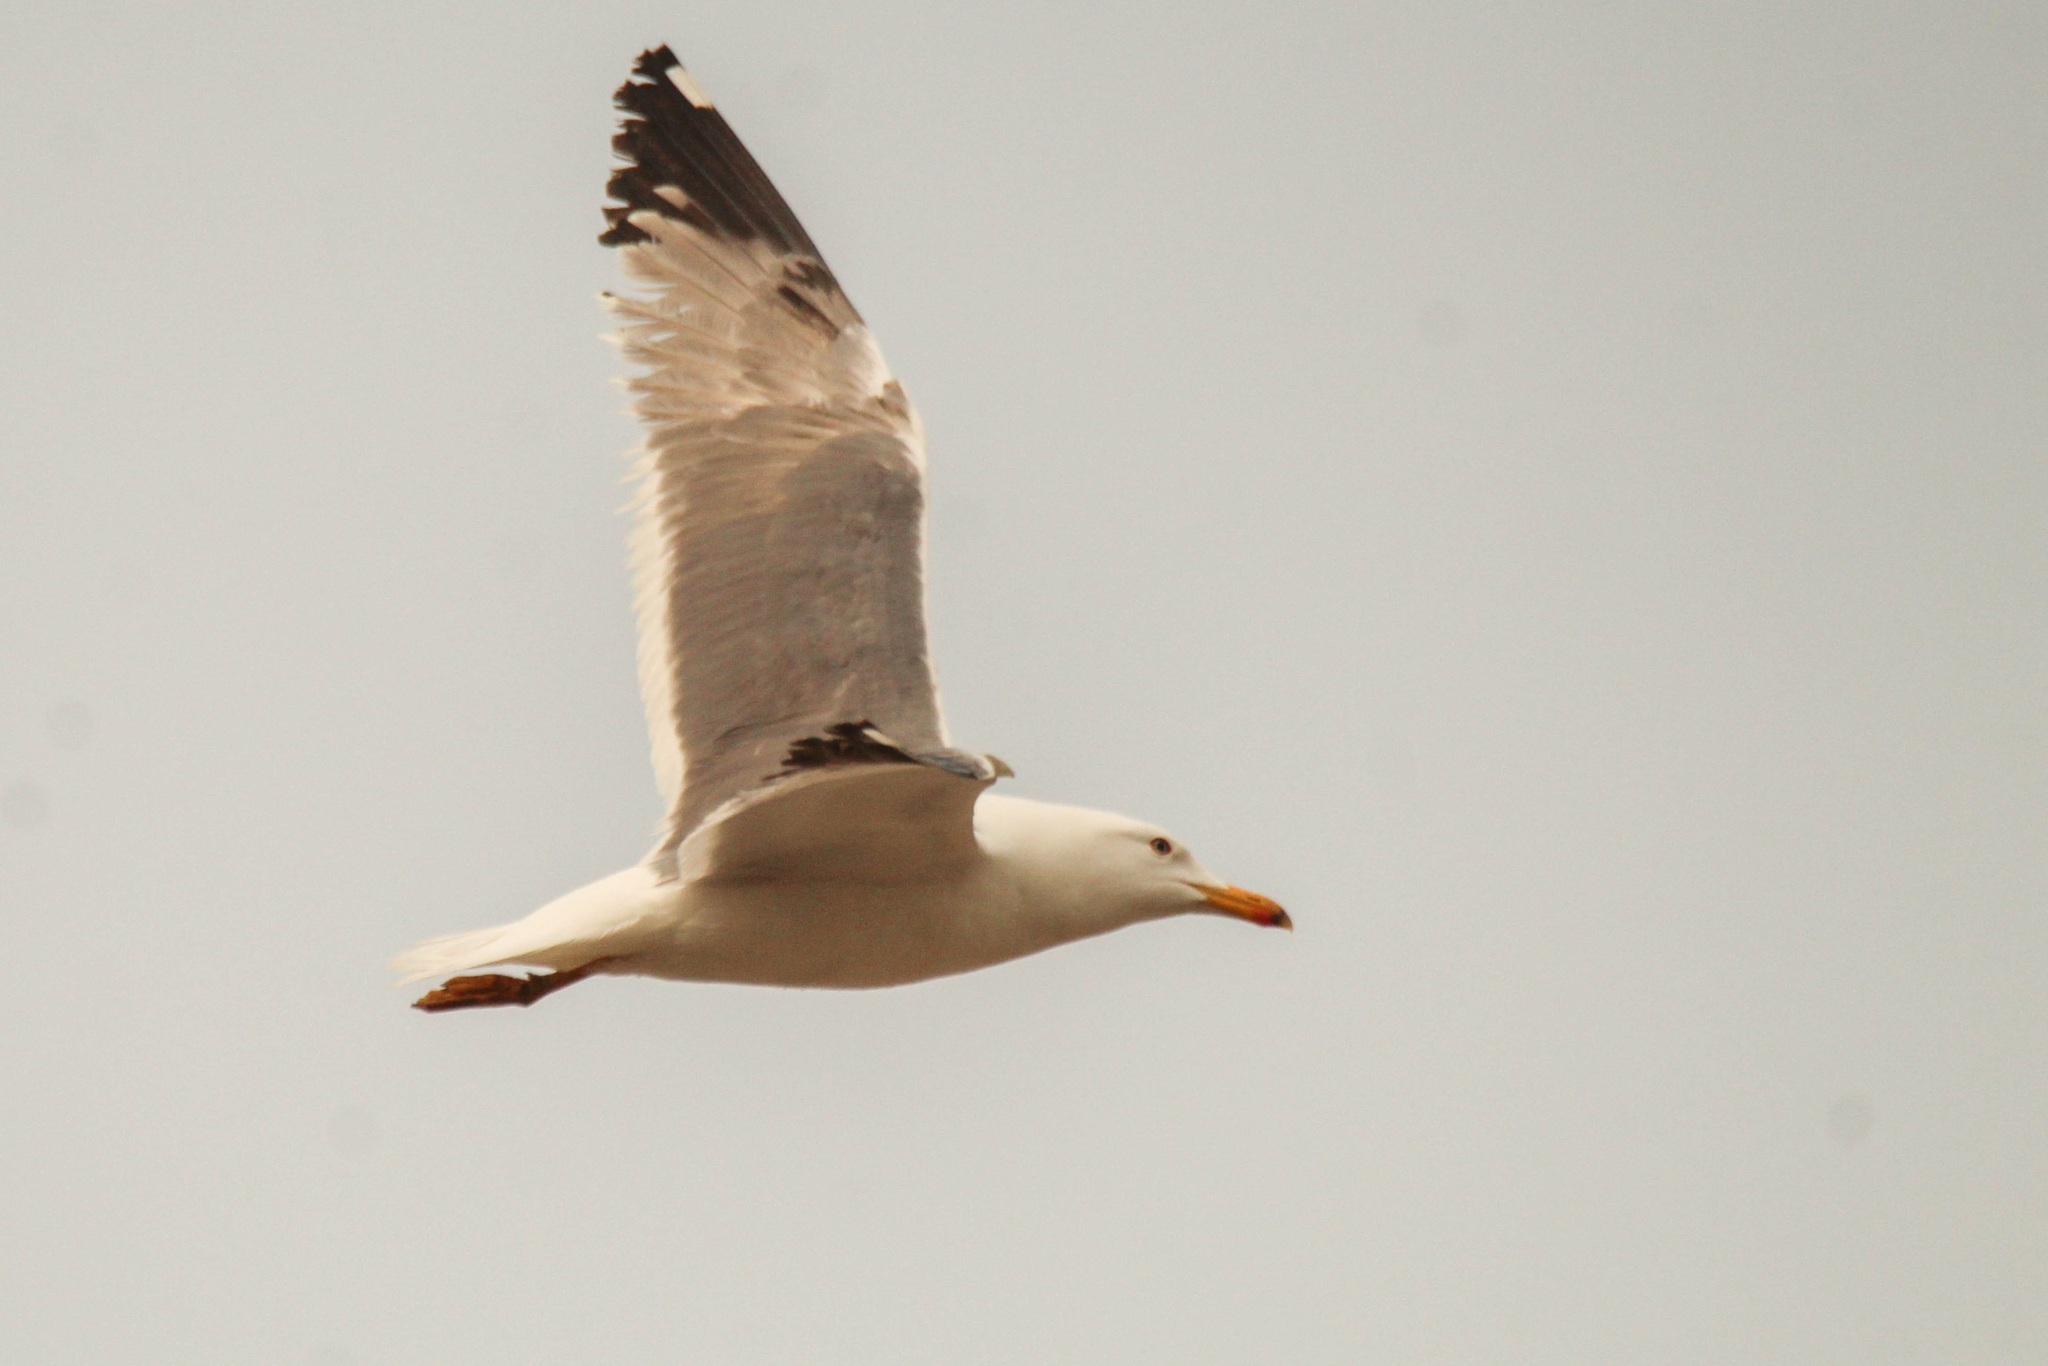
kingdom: Animalia
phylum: Chordata
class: Aves
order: Charadriiformes
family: Laridae
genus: Larus
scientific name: Larus fuscus
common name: Lesser black-backed gull
